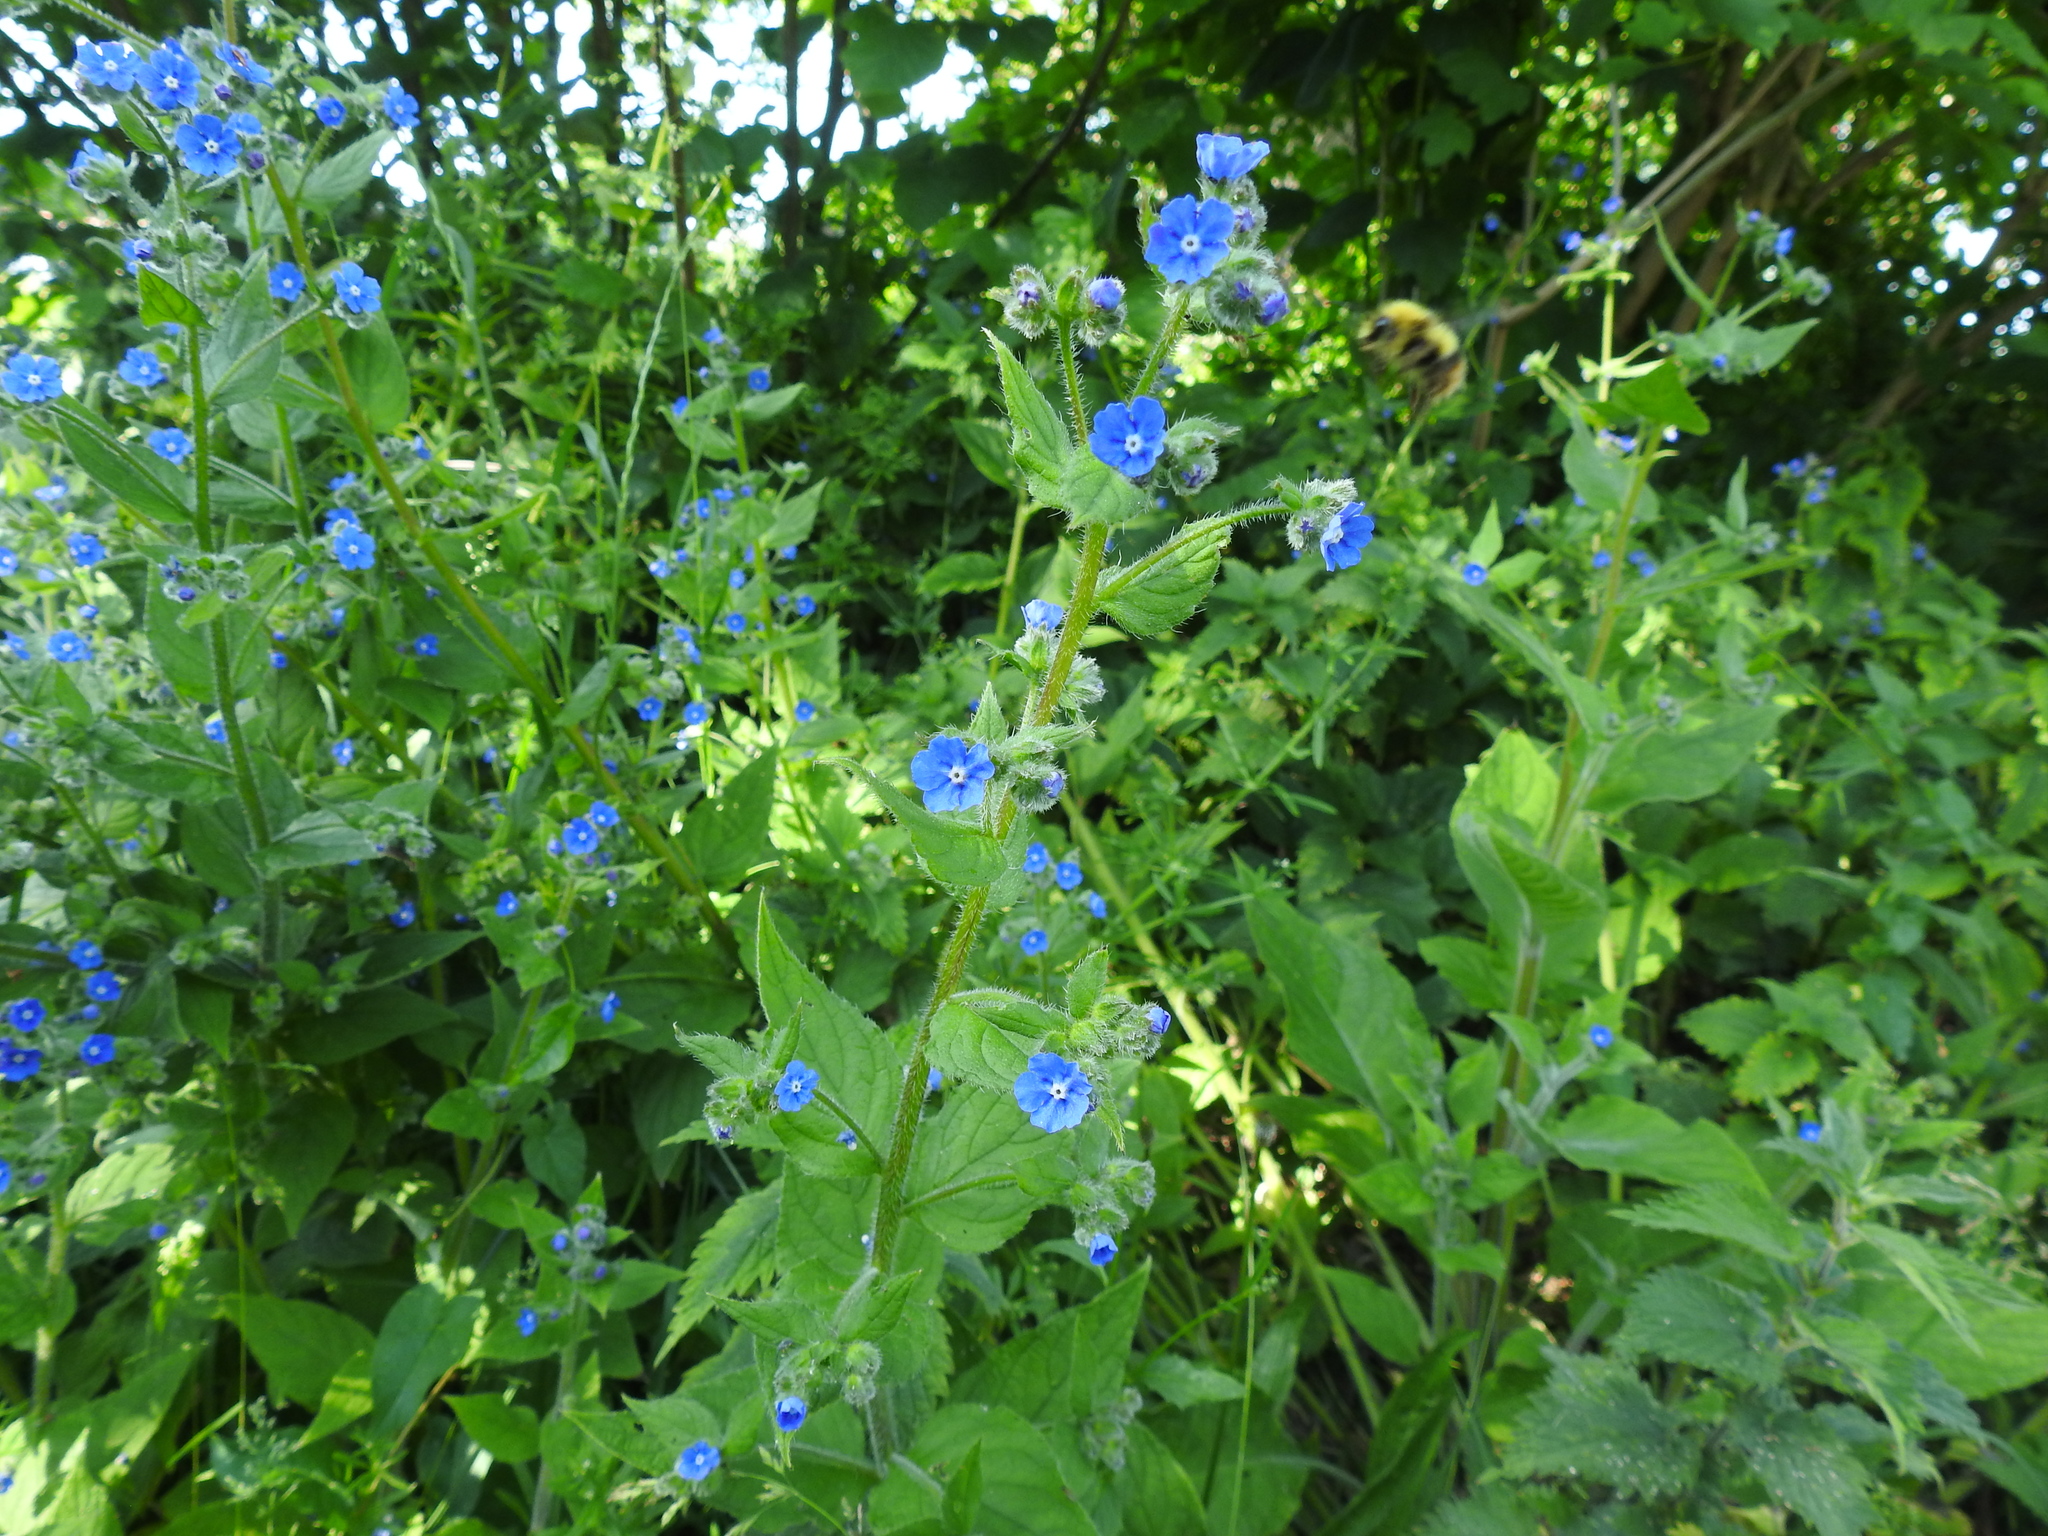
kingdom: Plantae
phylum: Tracheophyta
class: Magnoliopsida
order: Boraginales
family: Boraginaceae
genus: Pentaglottis
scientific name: Pentaglottis sempervirens
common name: Green alkanet
